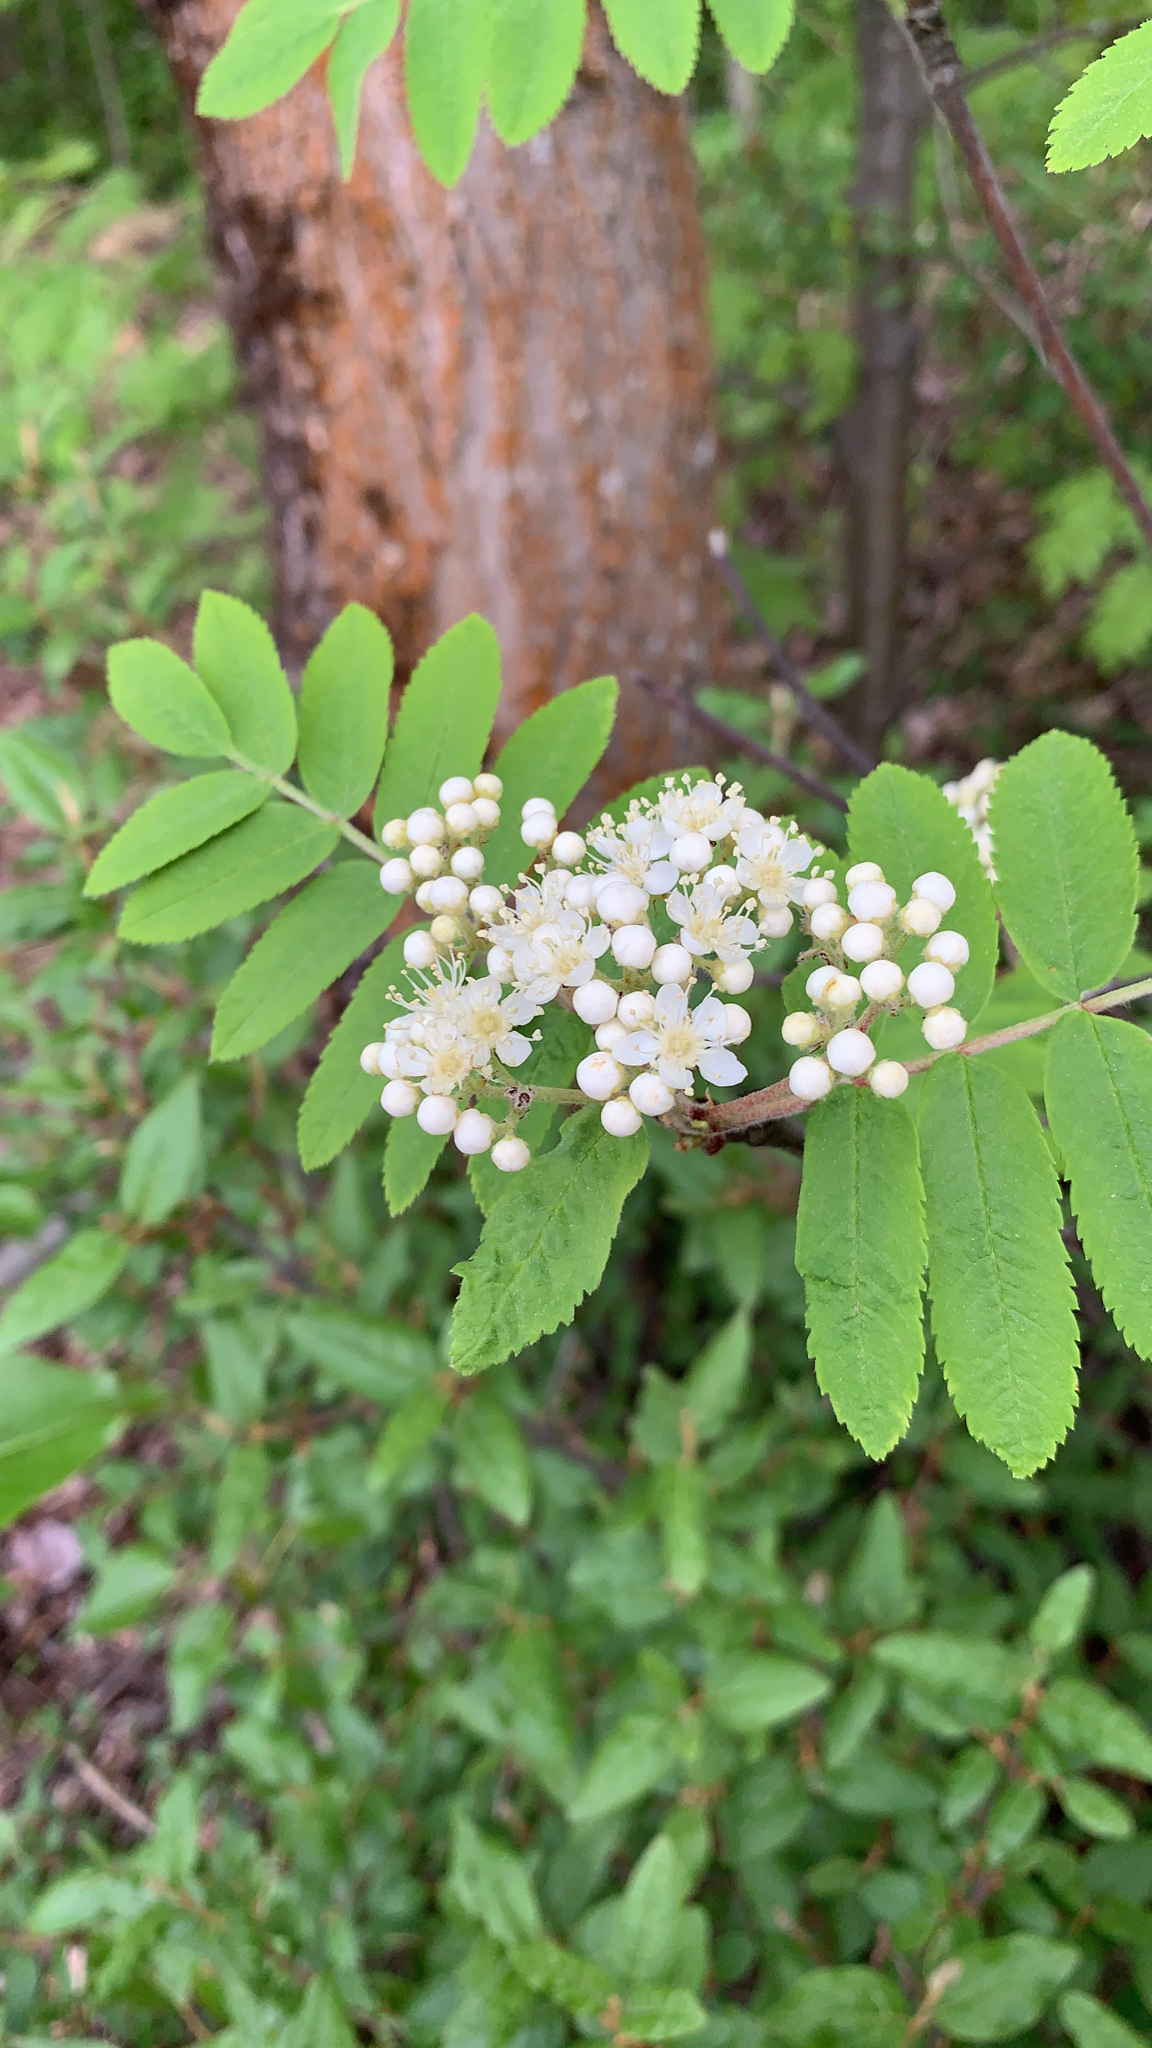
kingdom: Plantae
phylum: Tracheophyta
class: Magnoliopsida
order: Rosales
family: Rosaceae
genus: Sorbus
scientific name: Sorbus scopulina
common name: Greene's mountain-ash
